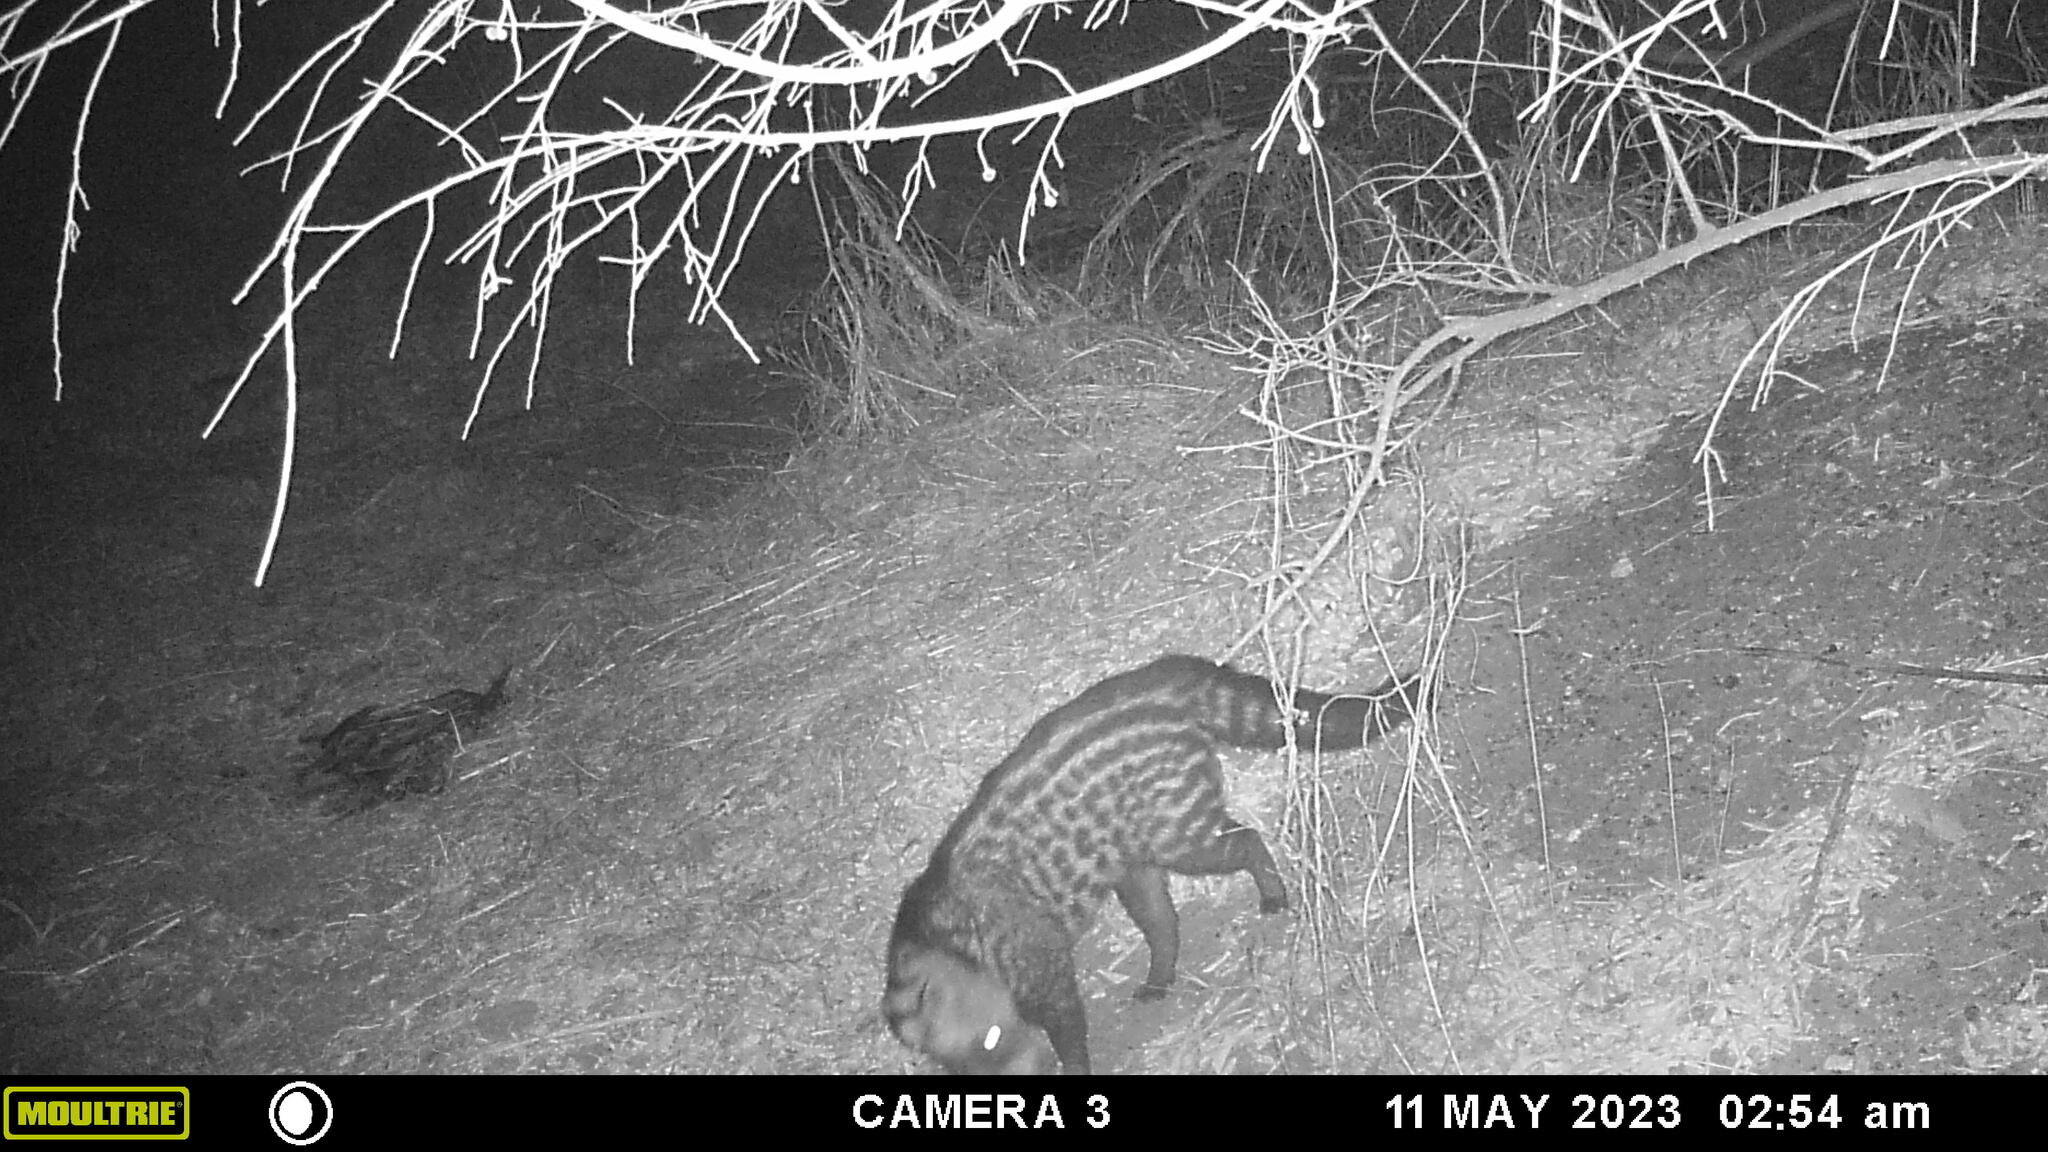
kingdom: Animalia
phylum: Chordata
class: Mammalia
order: Carnivora
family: Viverridae
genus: Civettictis
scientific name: Civettictis civetta
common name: African civet
